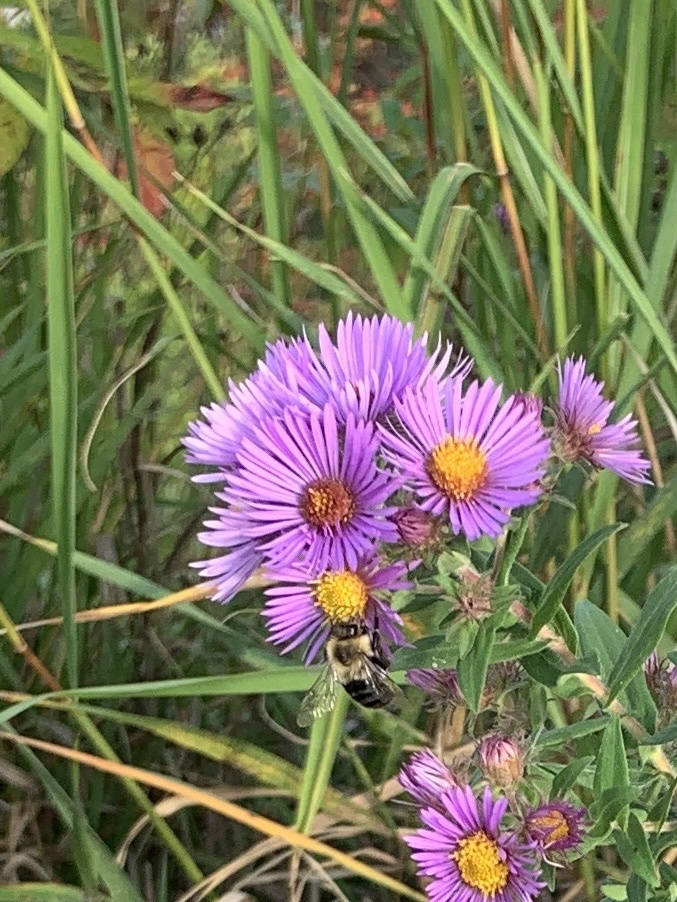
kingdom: Animalia
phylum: Arthropoda
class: Insecta
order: Hymenoptera
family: Apidae
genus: Bombus
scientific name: Bombus impatiens
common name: Common eastern bumble bee
